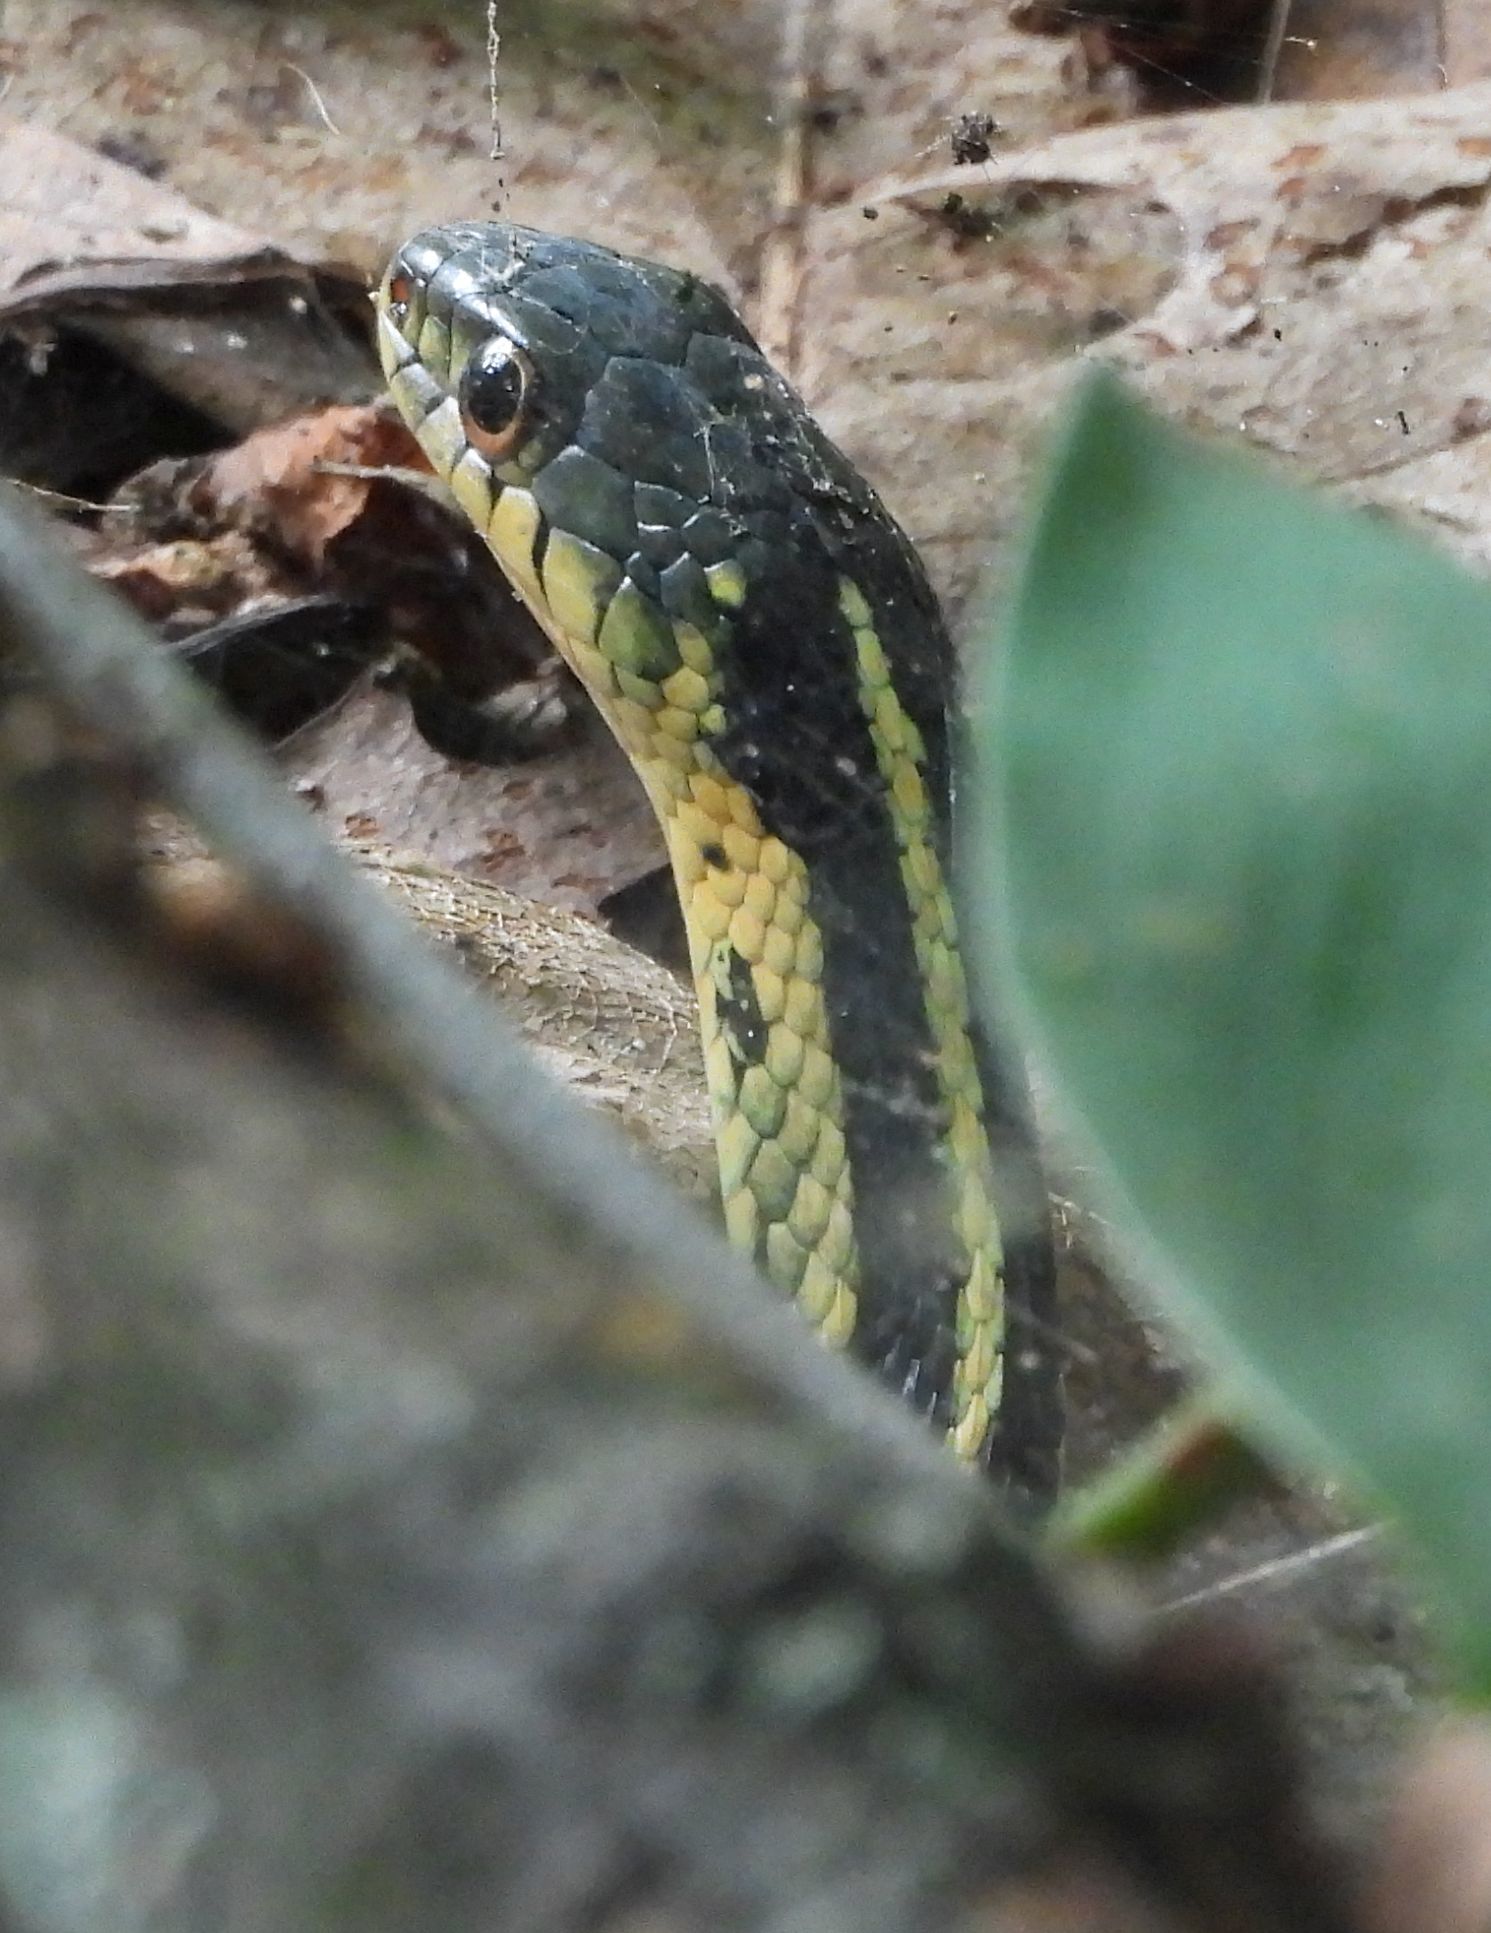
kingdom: Animalia
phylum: Chordata
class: Squamata
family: Colubridae
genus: Thamnophis
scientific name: Thamnophis sirtalis
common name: Common garter snake
